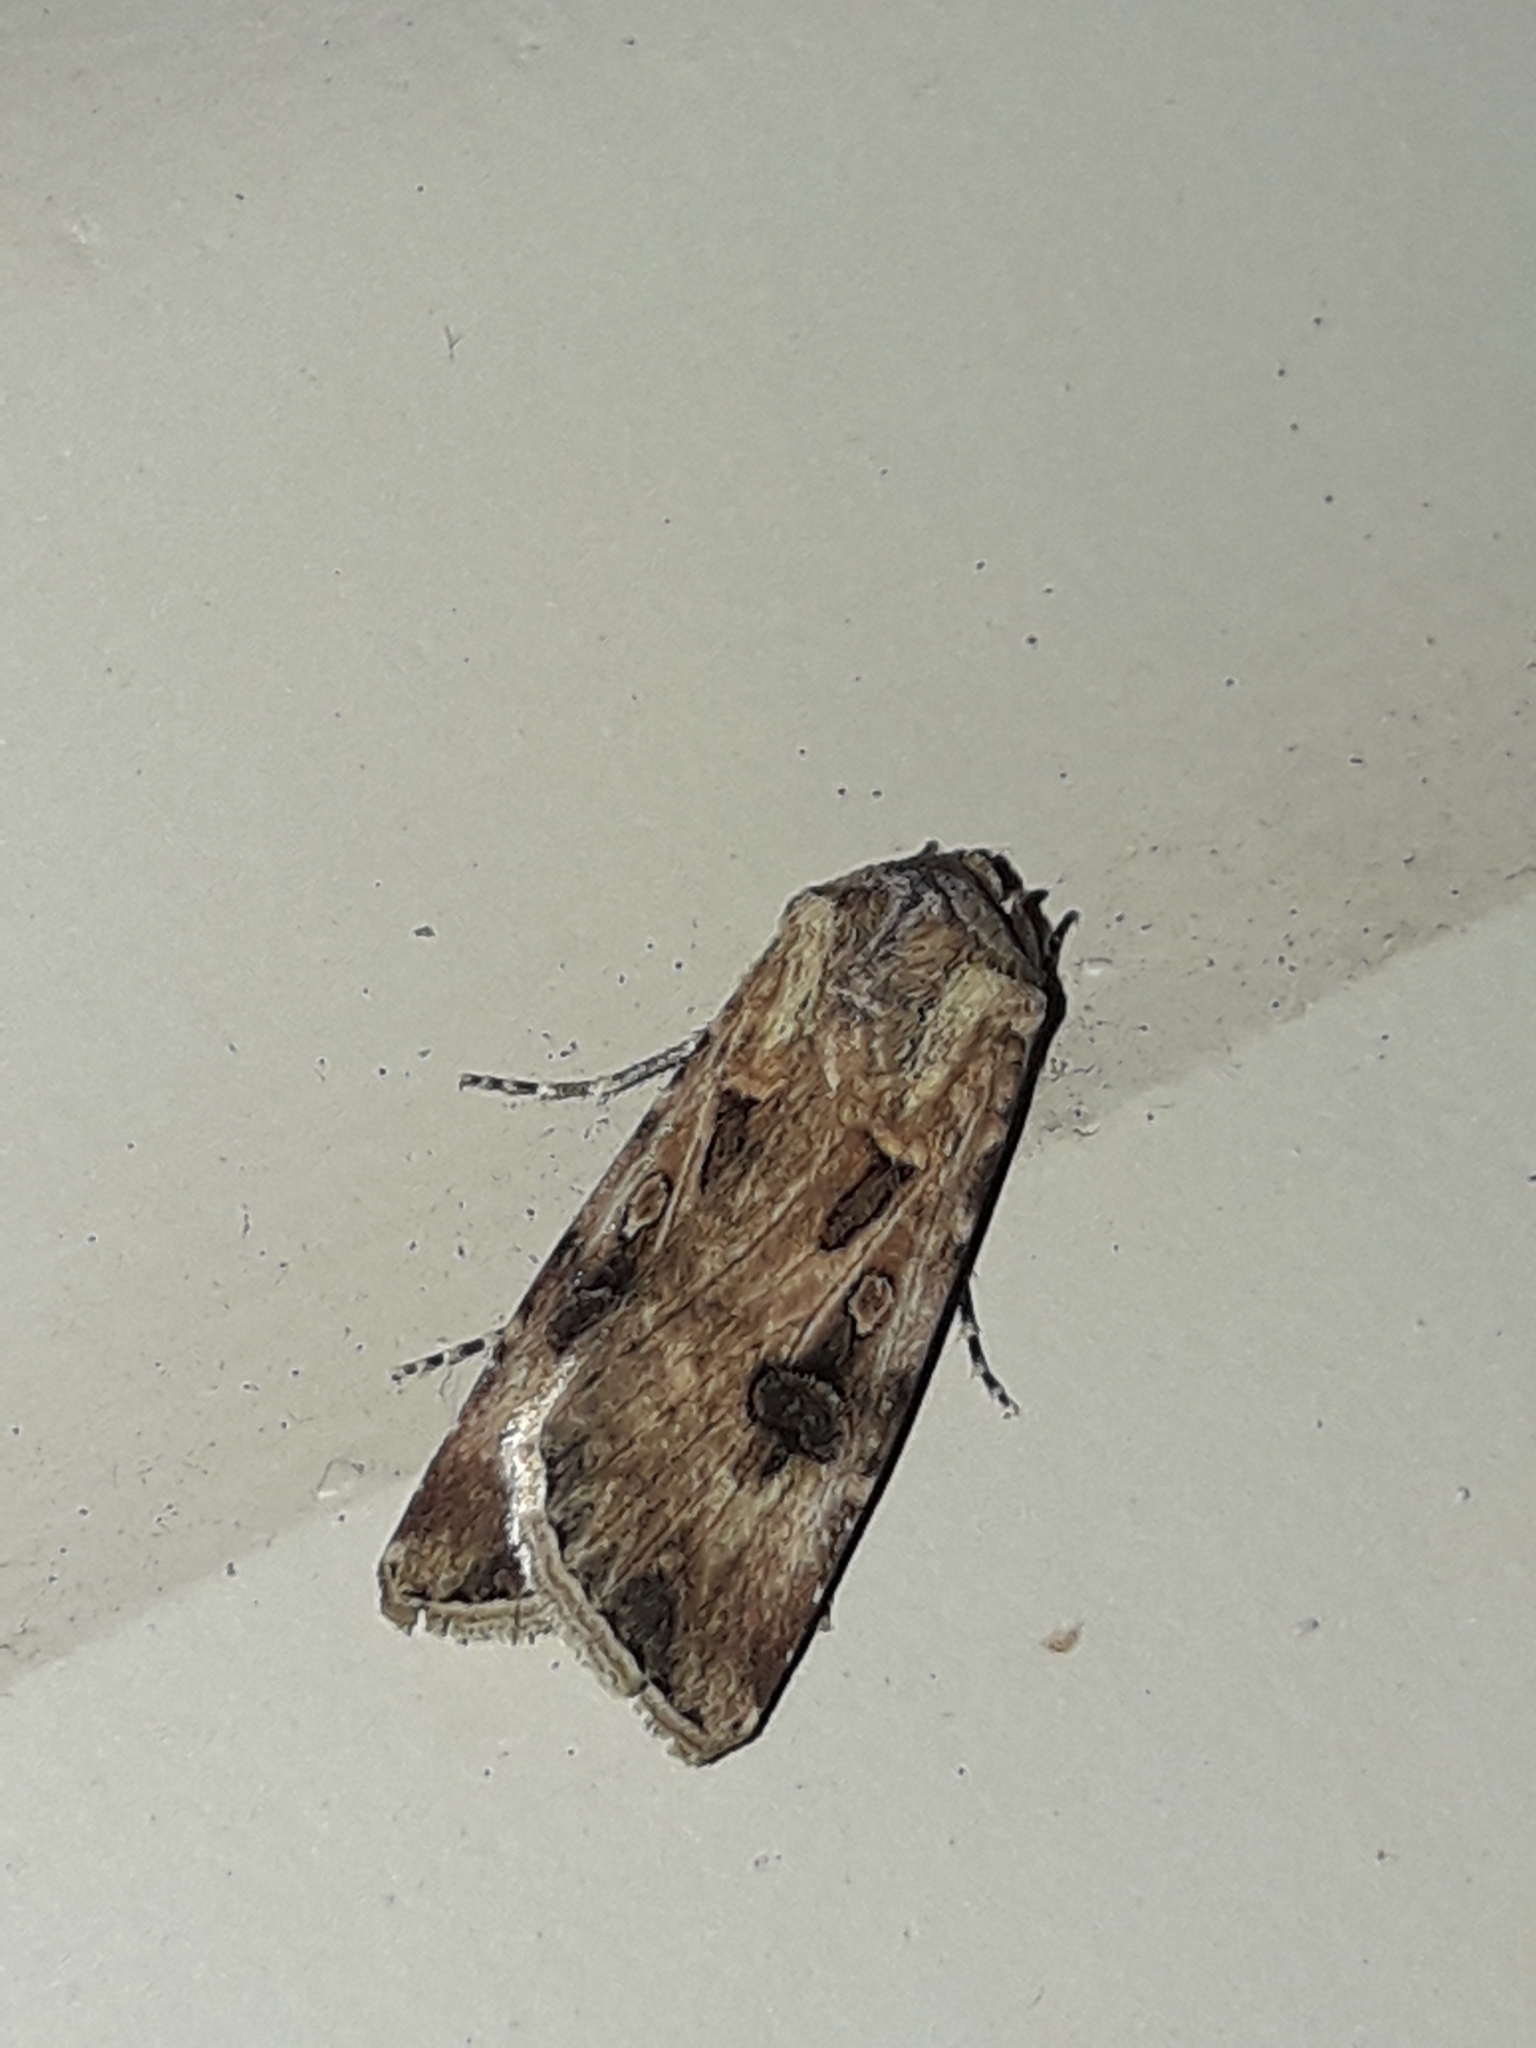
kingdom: Animalia
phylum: Arthropoda
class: Insecta
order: Lepidoptera
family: Noctuidae
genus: Agrotis
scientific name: Agrotis munda
